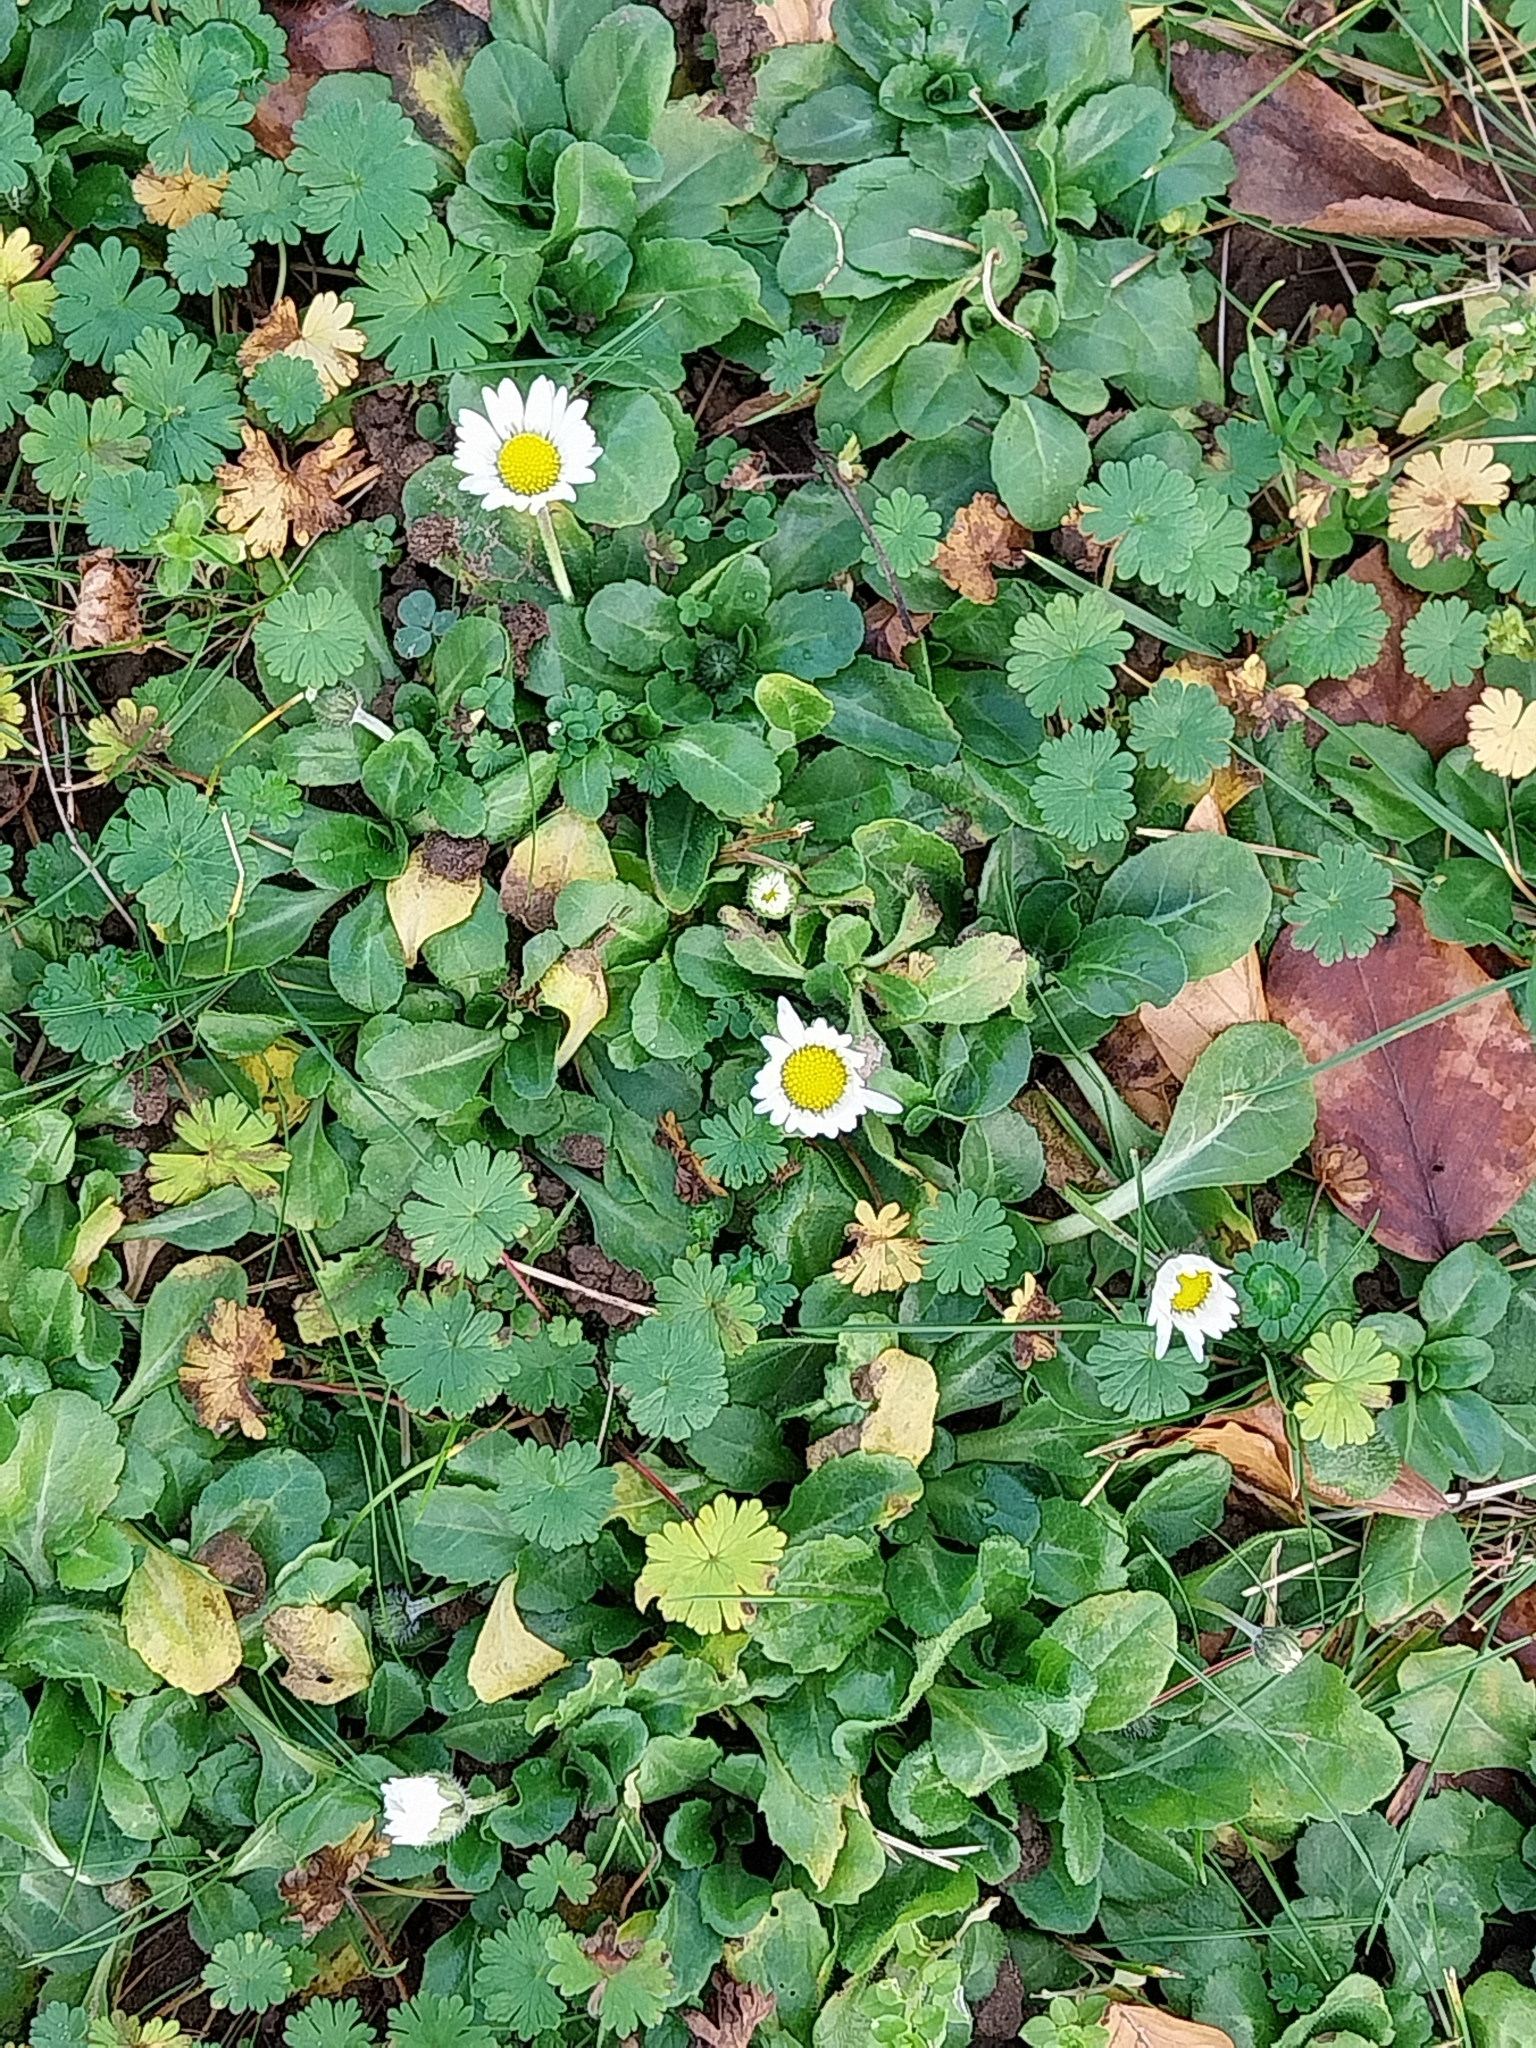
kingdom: Plantae
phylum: Tracheophyta
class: Magnoliopsida
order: Asterales
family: Asteraceae
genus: Bellis
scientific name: Bellis perennis
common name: Lawndaisy
